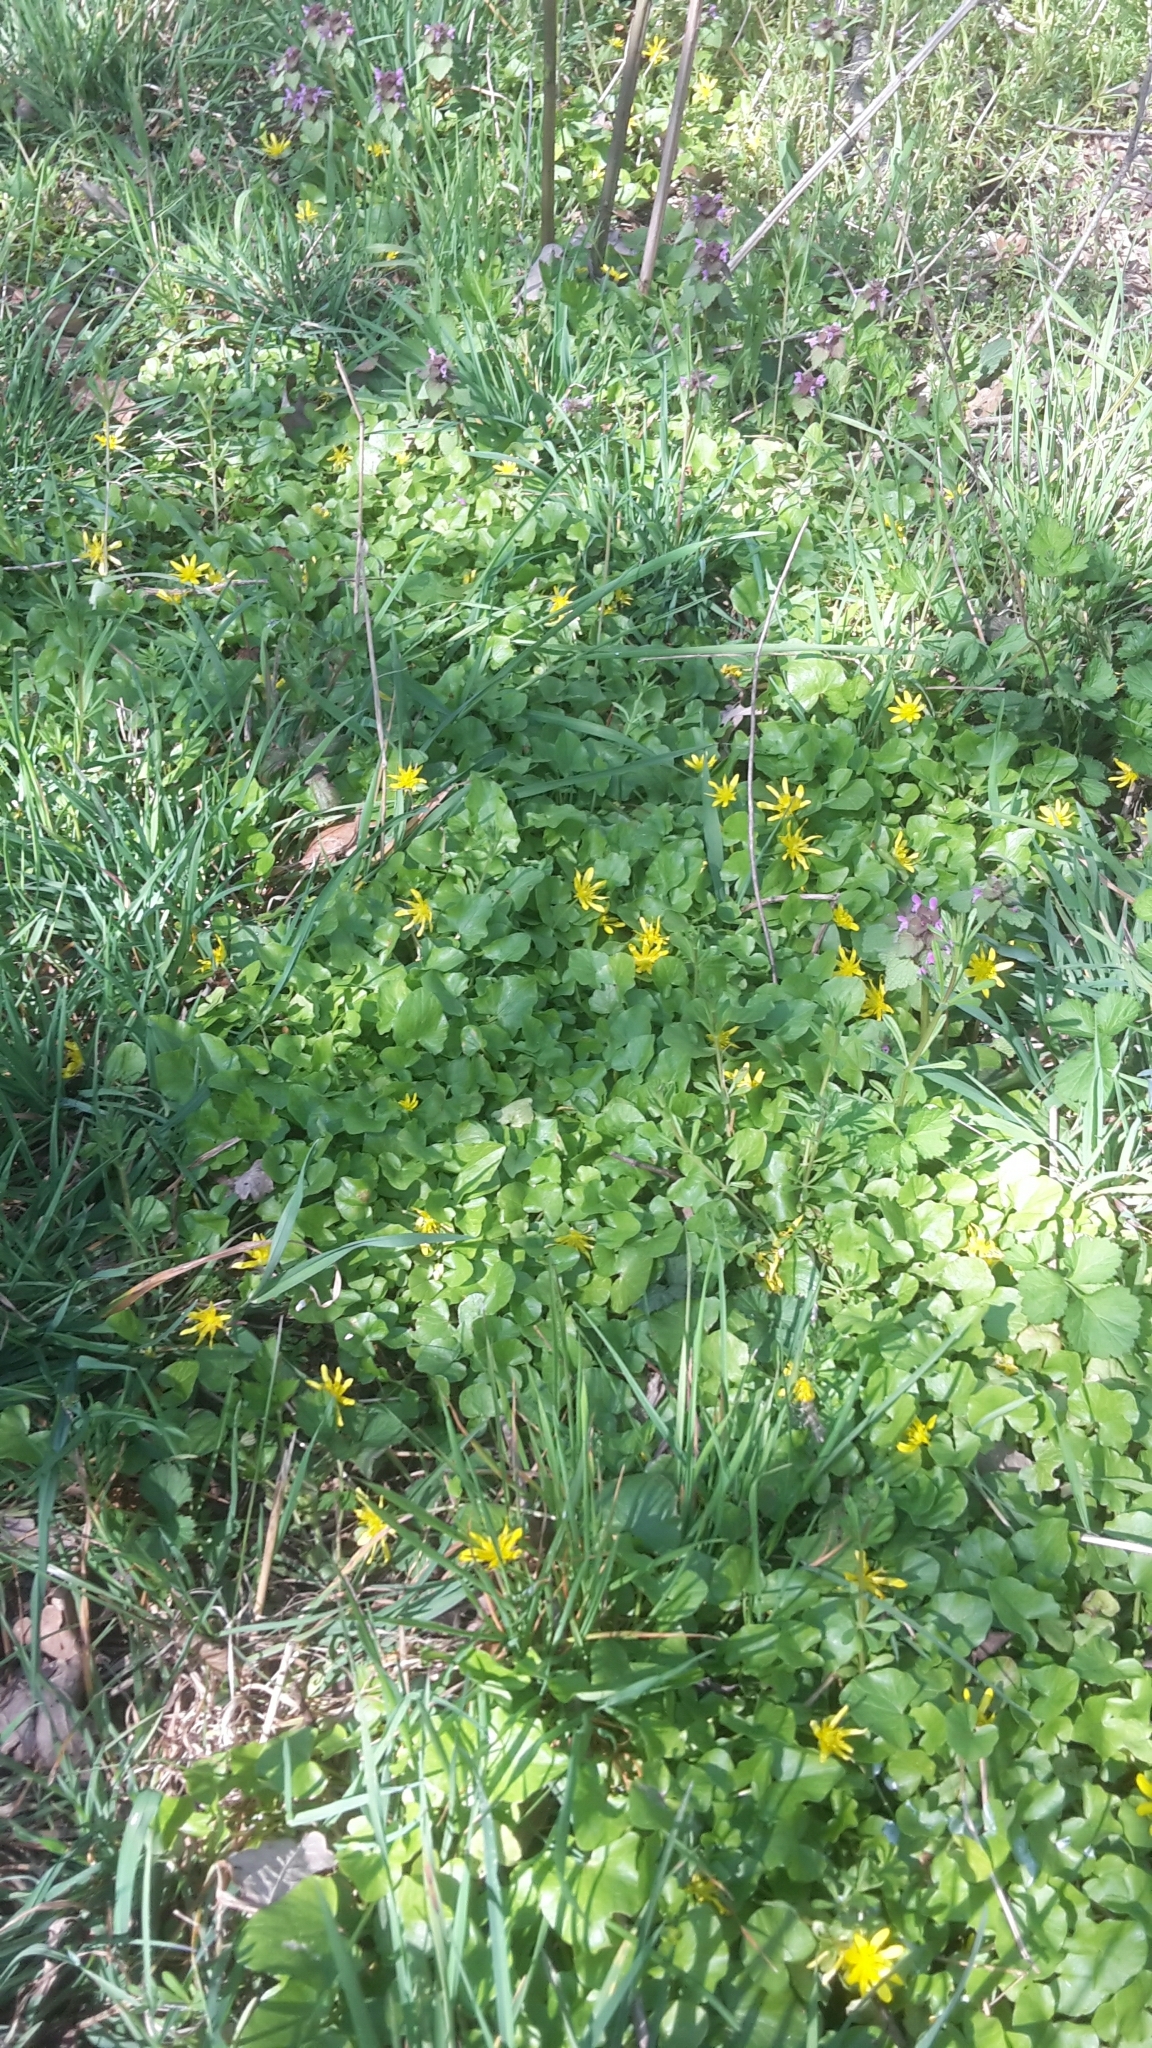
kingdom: Plantae
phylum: Tracheophyta
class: Magnoliopsida
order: Ranunculales
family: Ranunculaceae
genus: Ficaria
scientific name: Ficaria verna
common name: Lesser celandine
